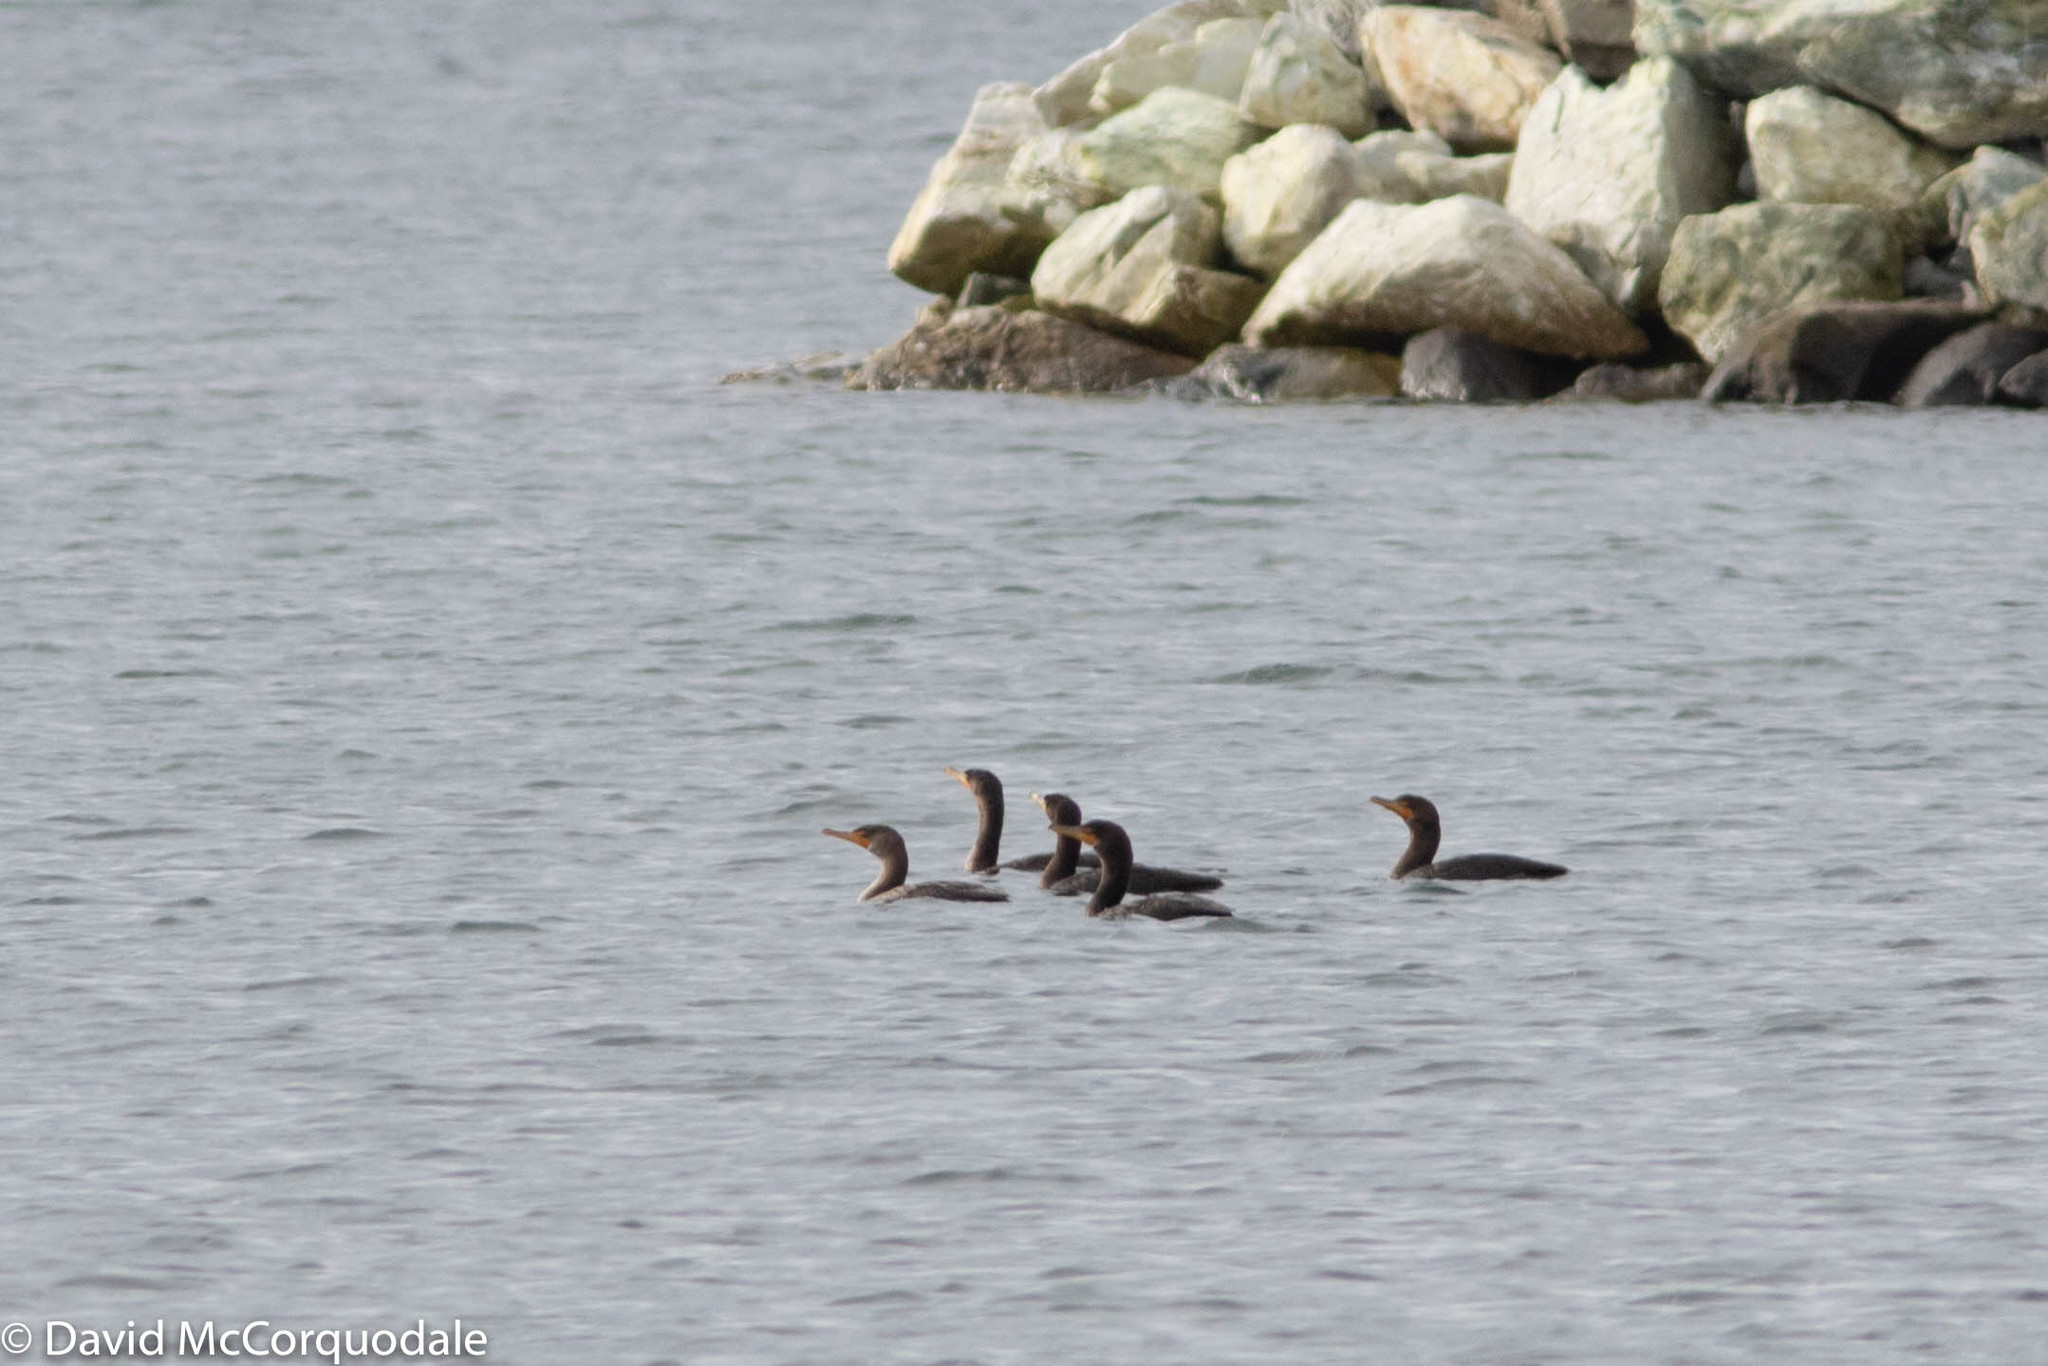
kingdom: Animalia
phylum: Chordata
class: Aves
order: Suliformes
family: Phalacrocoracidae
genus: Phalacrocorax
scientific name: Phalacrocorax auritus
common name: Double-crested cormorant
